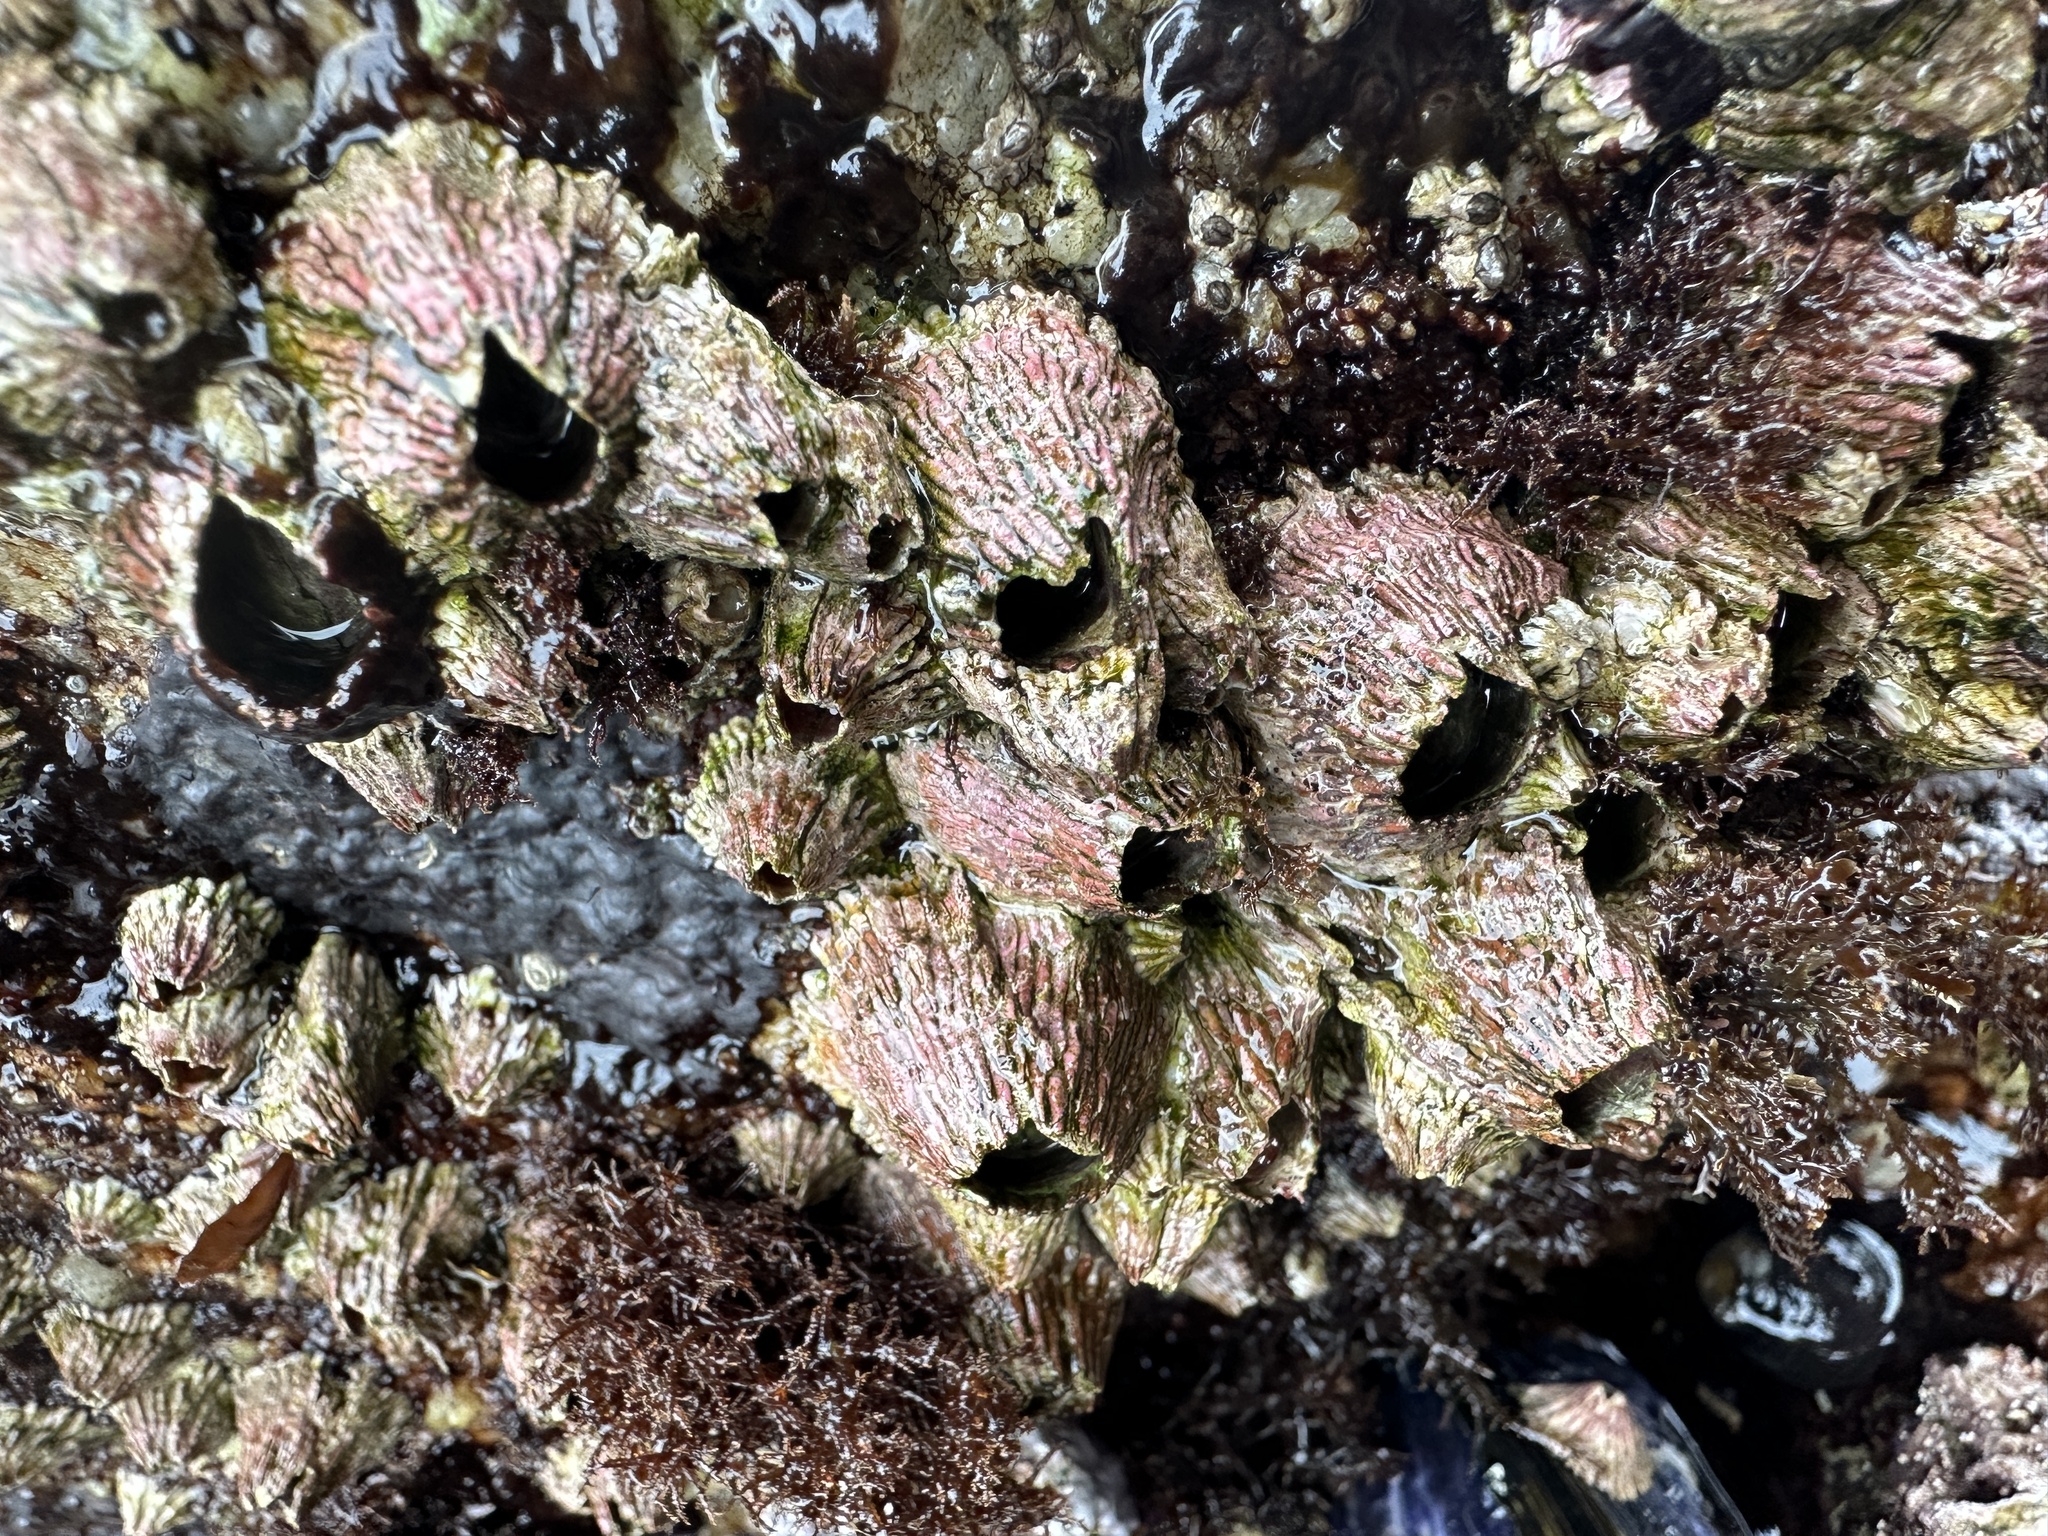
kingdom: Animalia
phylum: Arthropoda
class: Maxillopoda
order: Sessilia
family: Tetraclitidae
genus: Tetraclita
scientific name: Tetraclita rubescens
